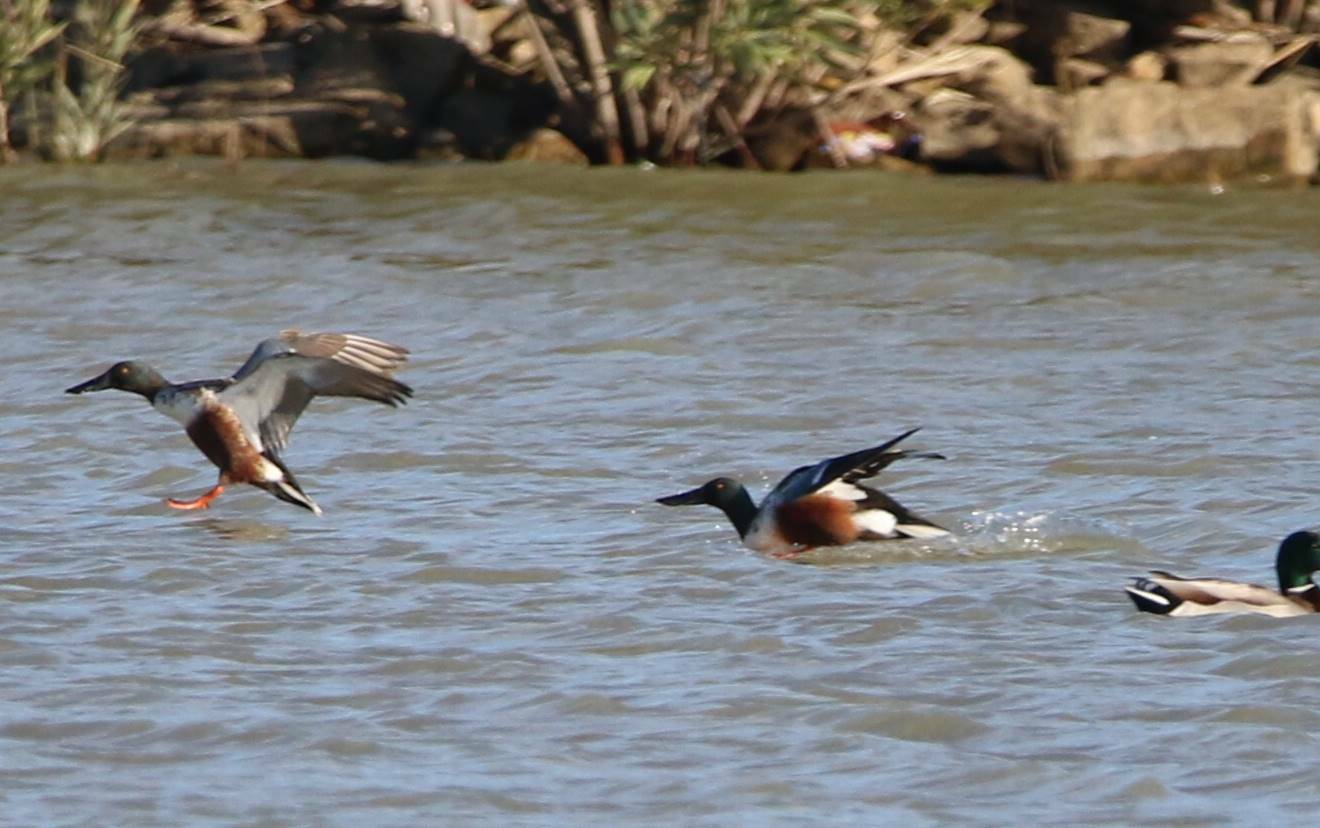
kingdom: Animalia
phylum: Chordata
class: Aves
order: Anseriformes
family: Anatidae
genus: Spatula
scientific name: Spatula clypeata
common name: Northern shoveler
